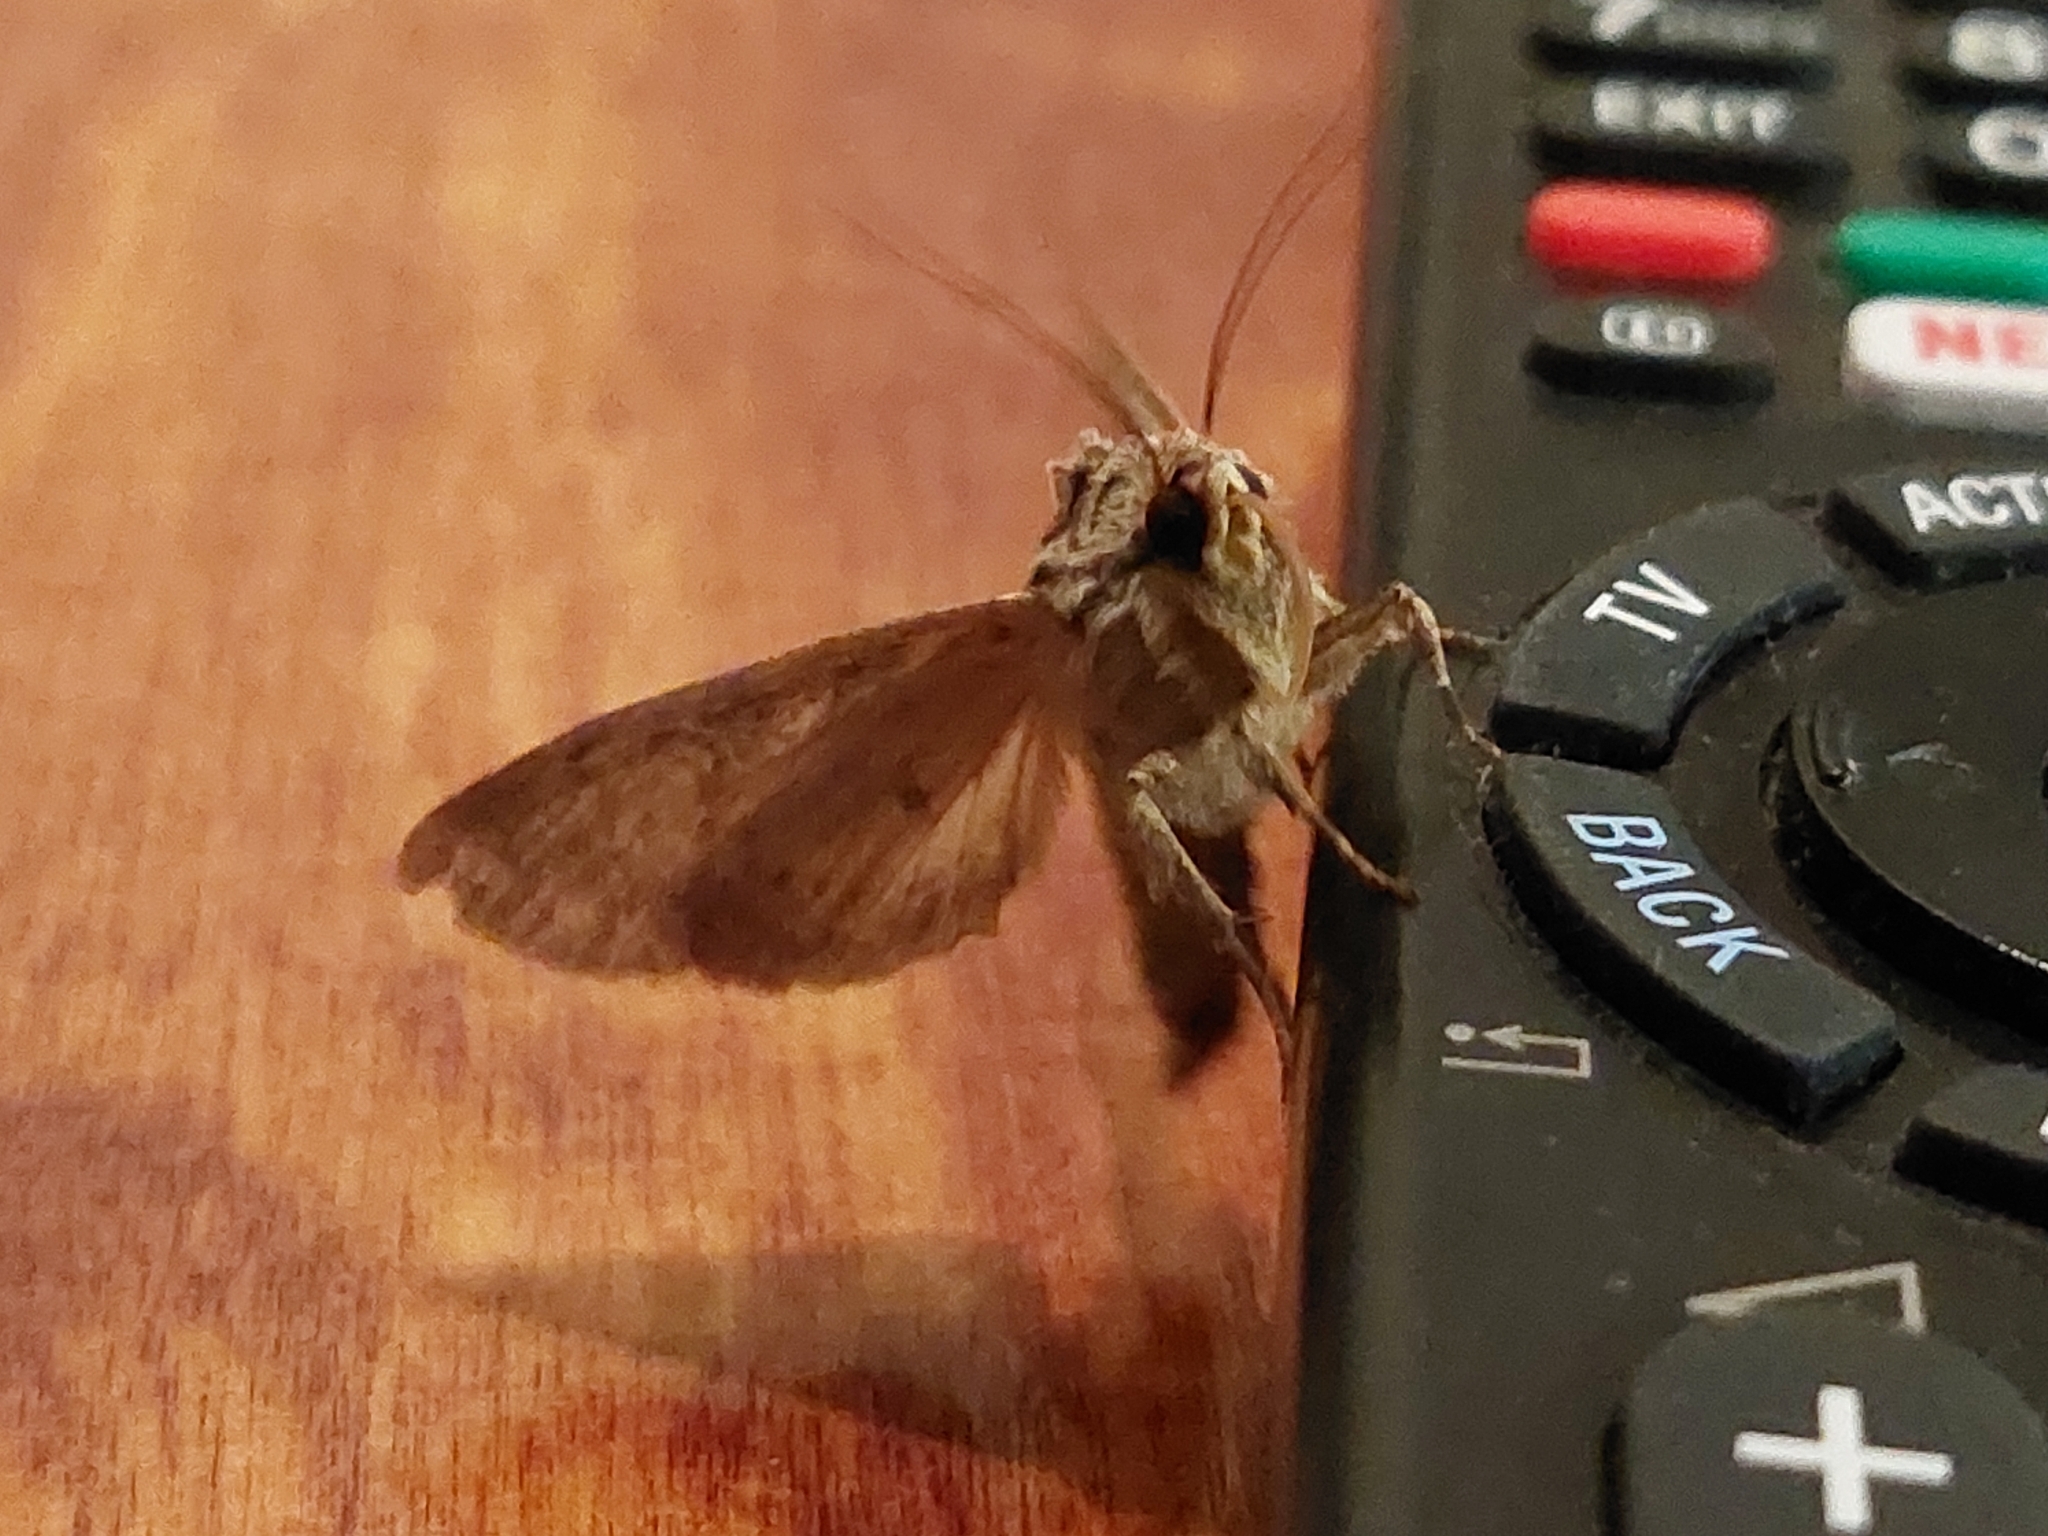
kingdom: Animalia
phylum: Arthropoda
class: Insecta
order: Lepidoptera
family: Noctuidae
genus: Apamea
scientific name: Apamea monoglypha
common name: Dark arches
